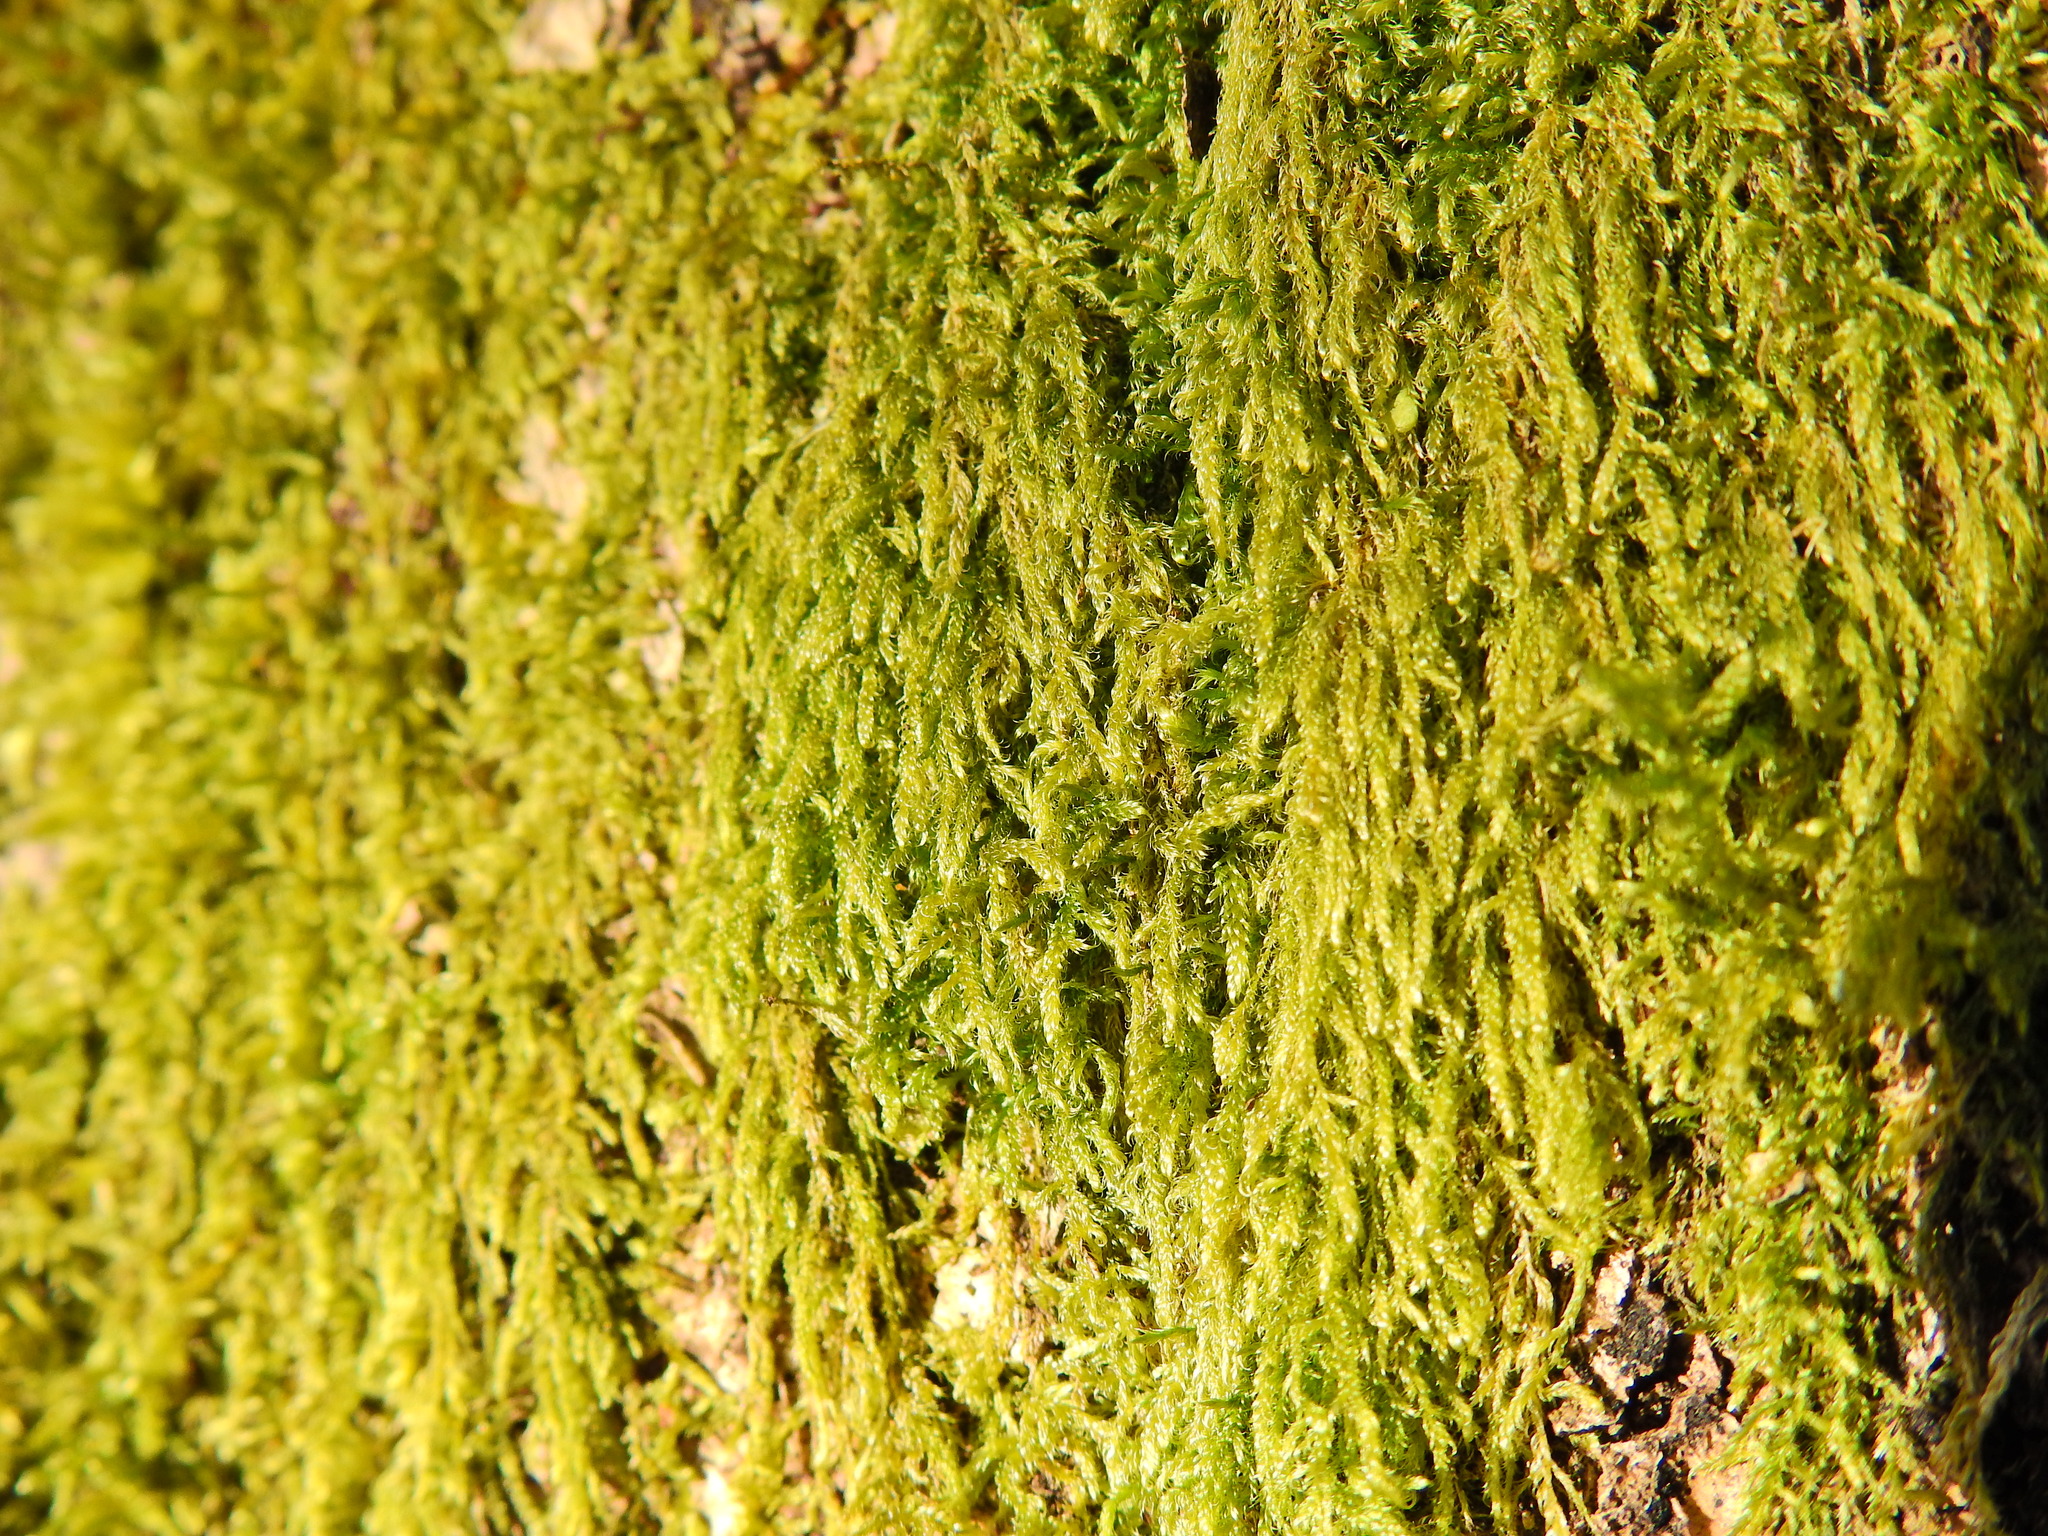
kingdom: Plantae
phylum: Bryophyta
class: Bryopsida
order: Hypnales
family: Hypnaceae
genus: Hypnum
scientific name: Hypnum cupressiforme
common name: Cypress-leaved plait-moss
